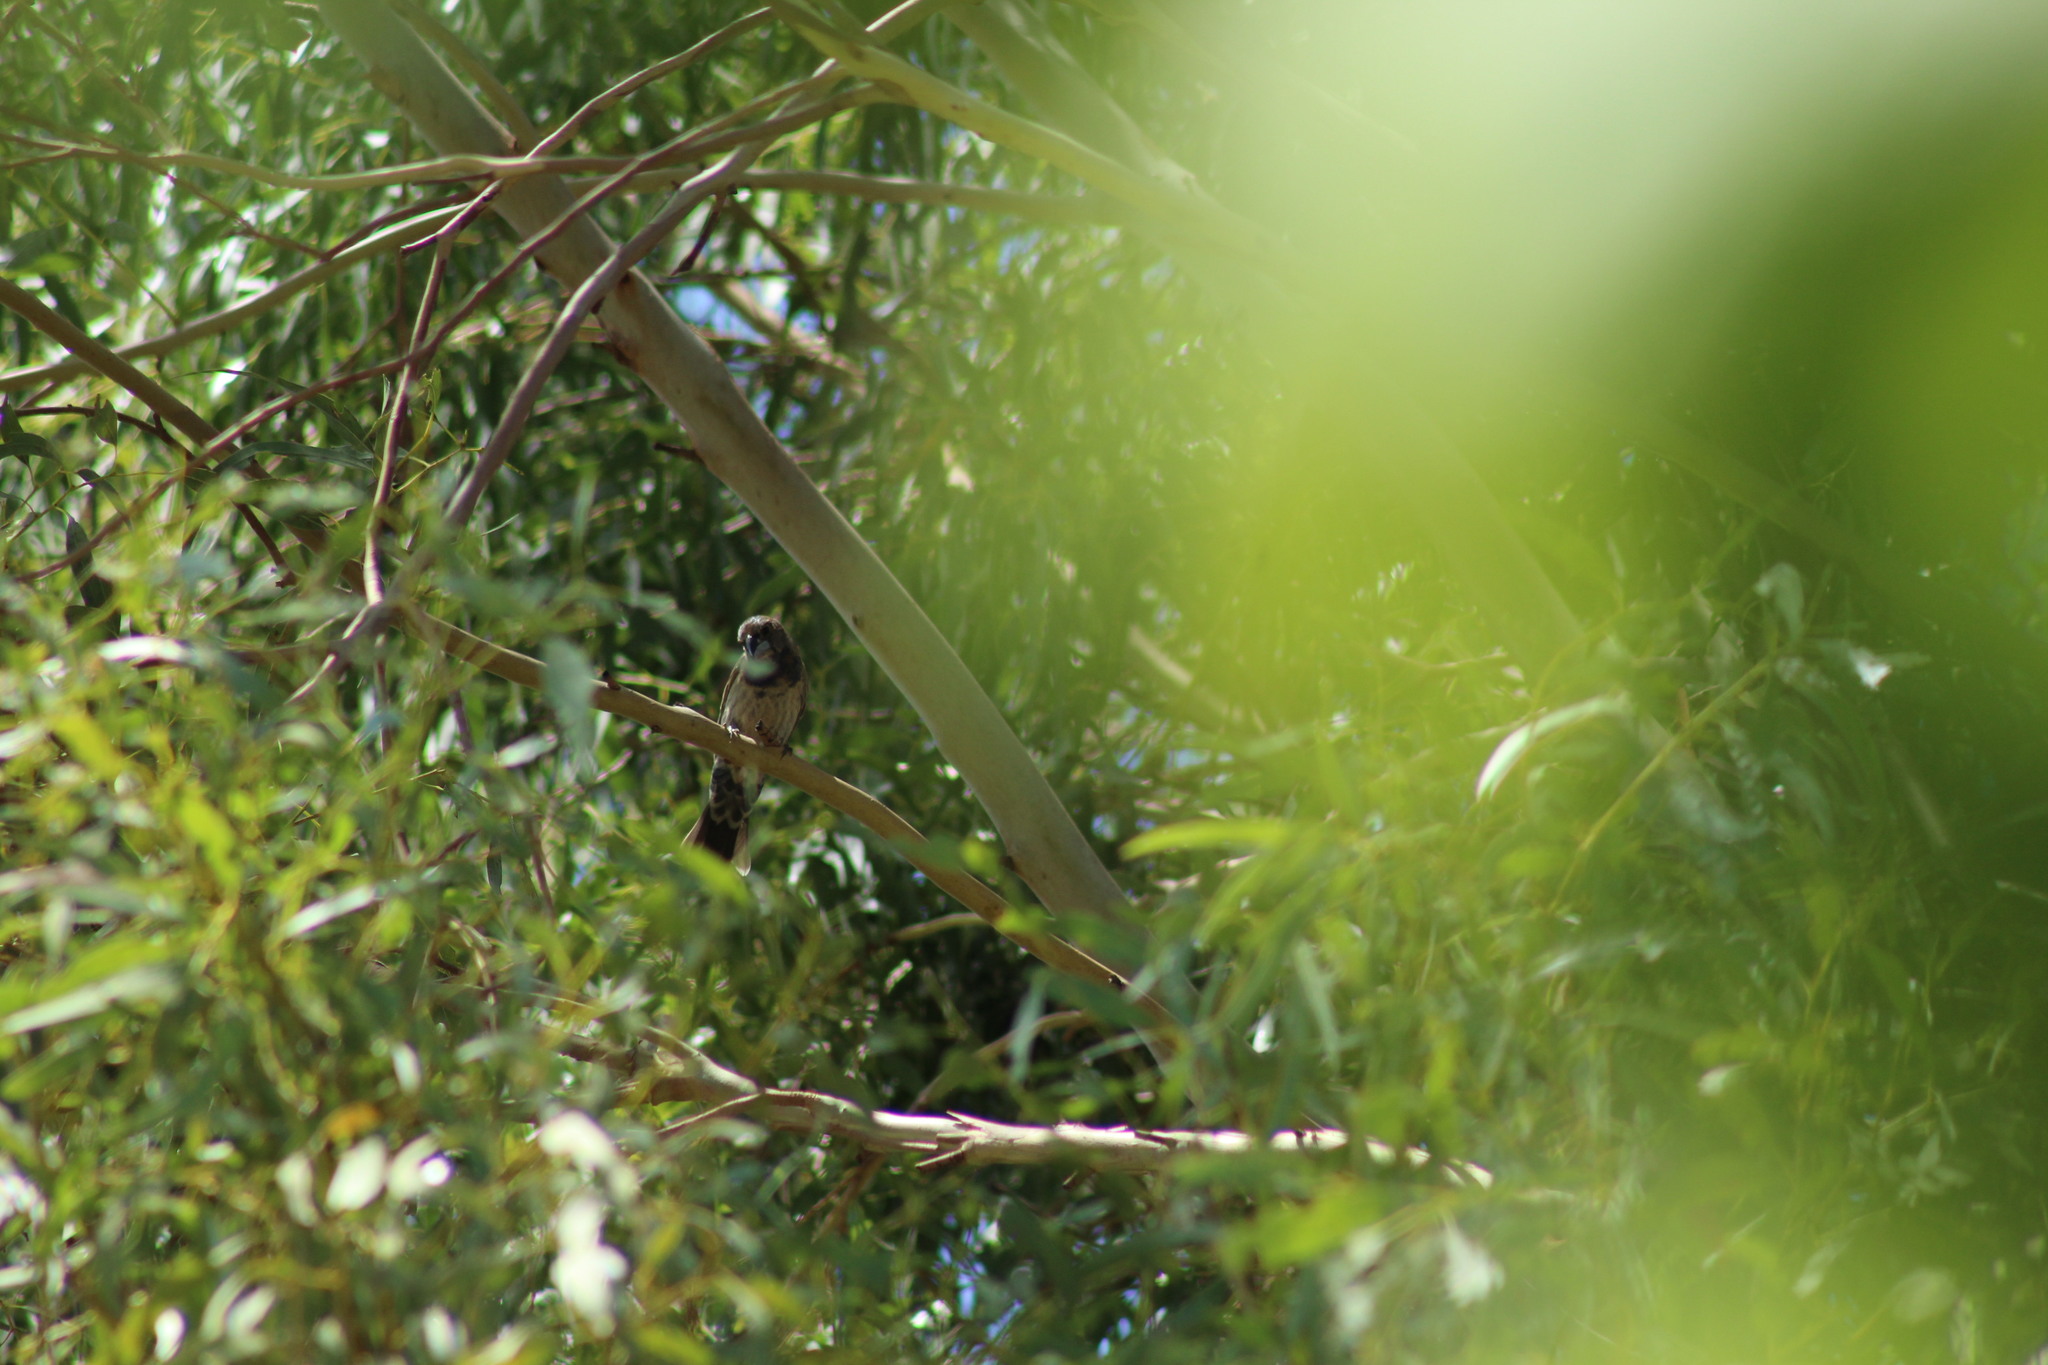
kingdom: Animalia
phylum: Chordata
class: Aves
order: Passeriformes
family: Cardinalidae
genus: Passerina
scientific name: Passerina caerulea
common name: Blue grosbeak
